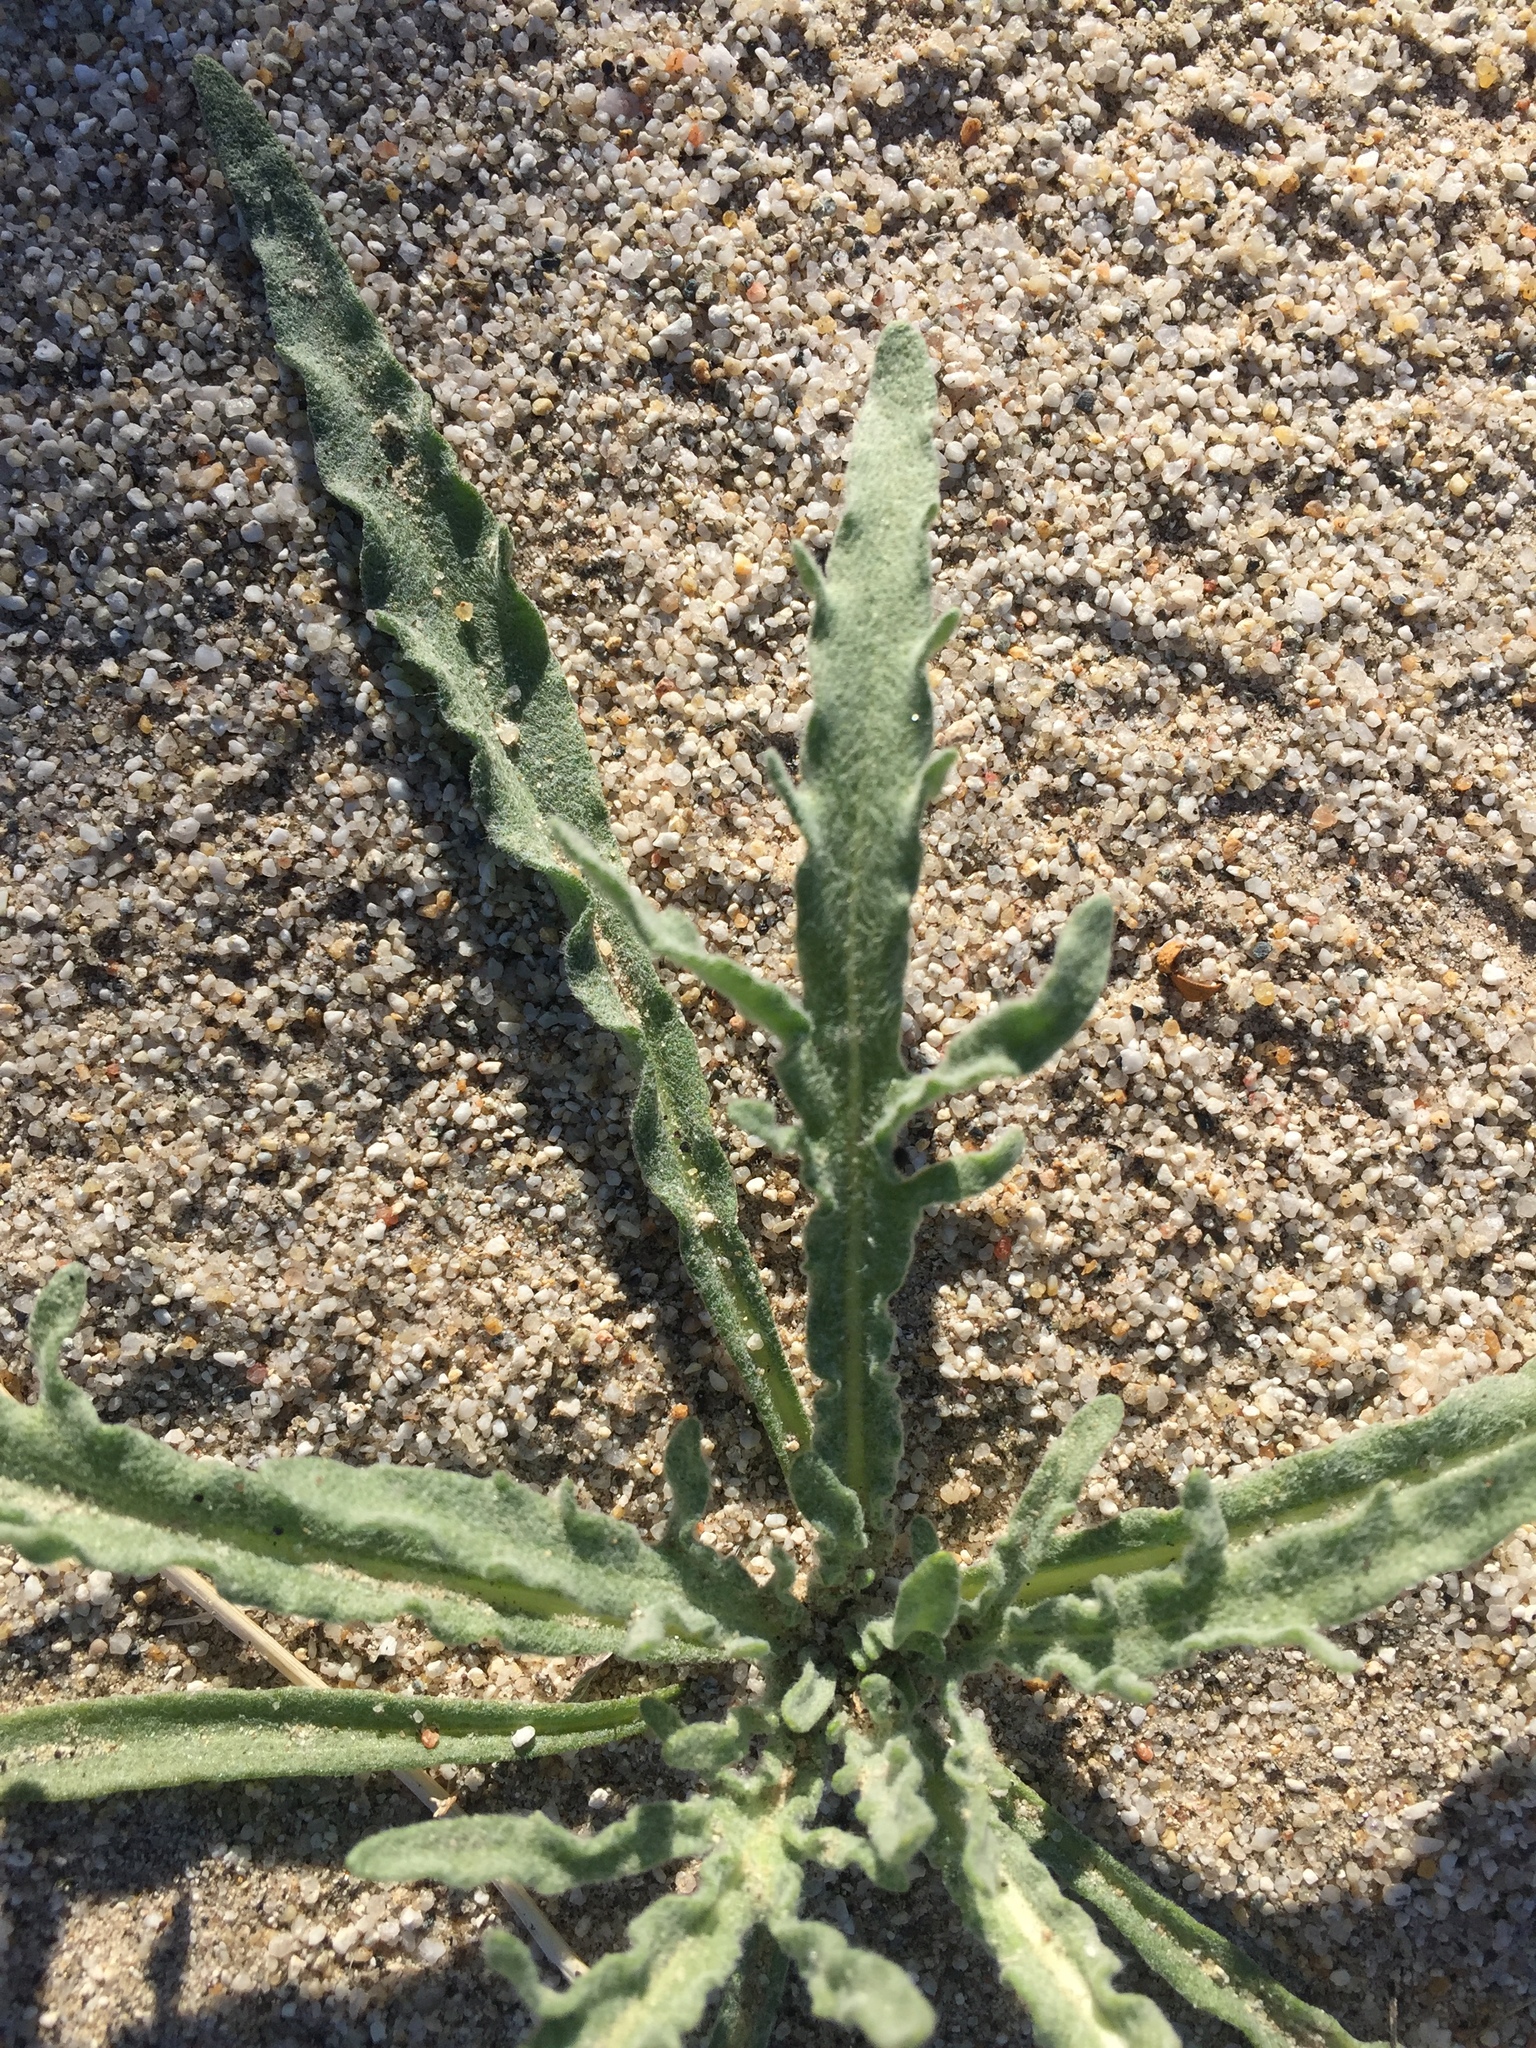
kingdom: Plantae
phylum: Tracheophyta
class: Magnoliopsida
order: Asterales
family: Asteraceae
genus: Baileya
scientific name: Baileya pauciradiata
